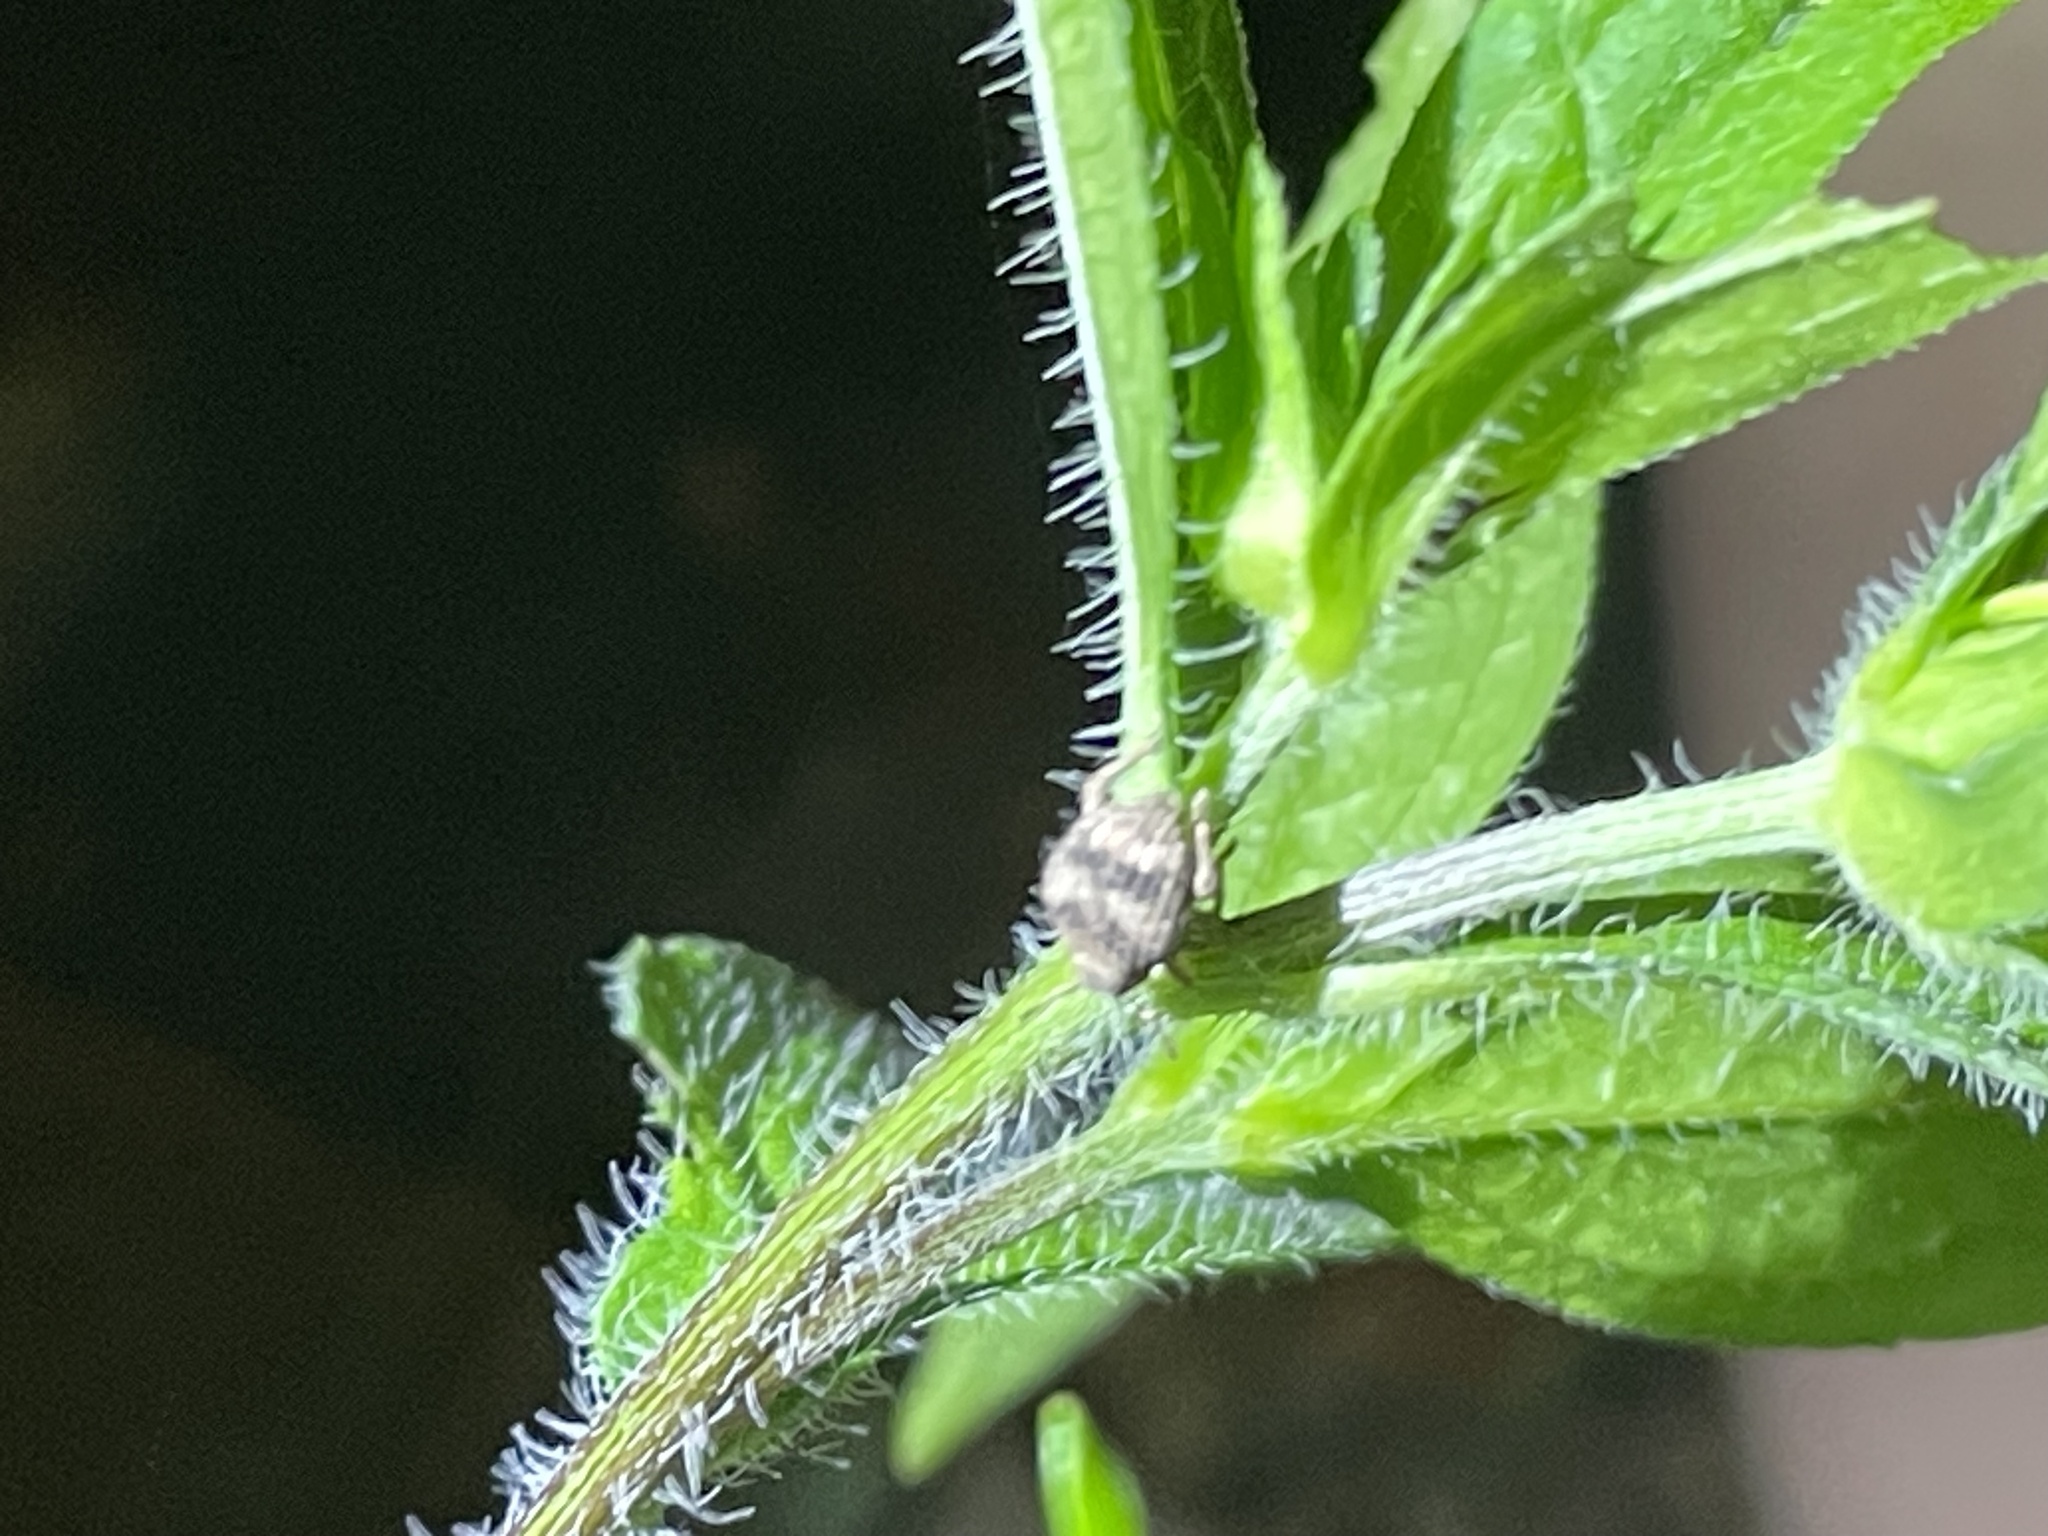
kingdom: Animalia
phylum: Arthropoda
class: Insecta
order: Coleoptera
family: Curculionidae
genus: Pseudocneorhinus
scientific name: Pseudocneorhinus bifasciatus
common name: Two-banded japanese weevil
